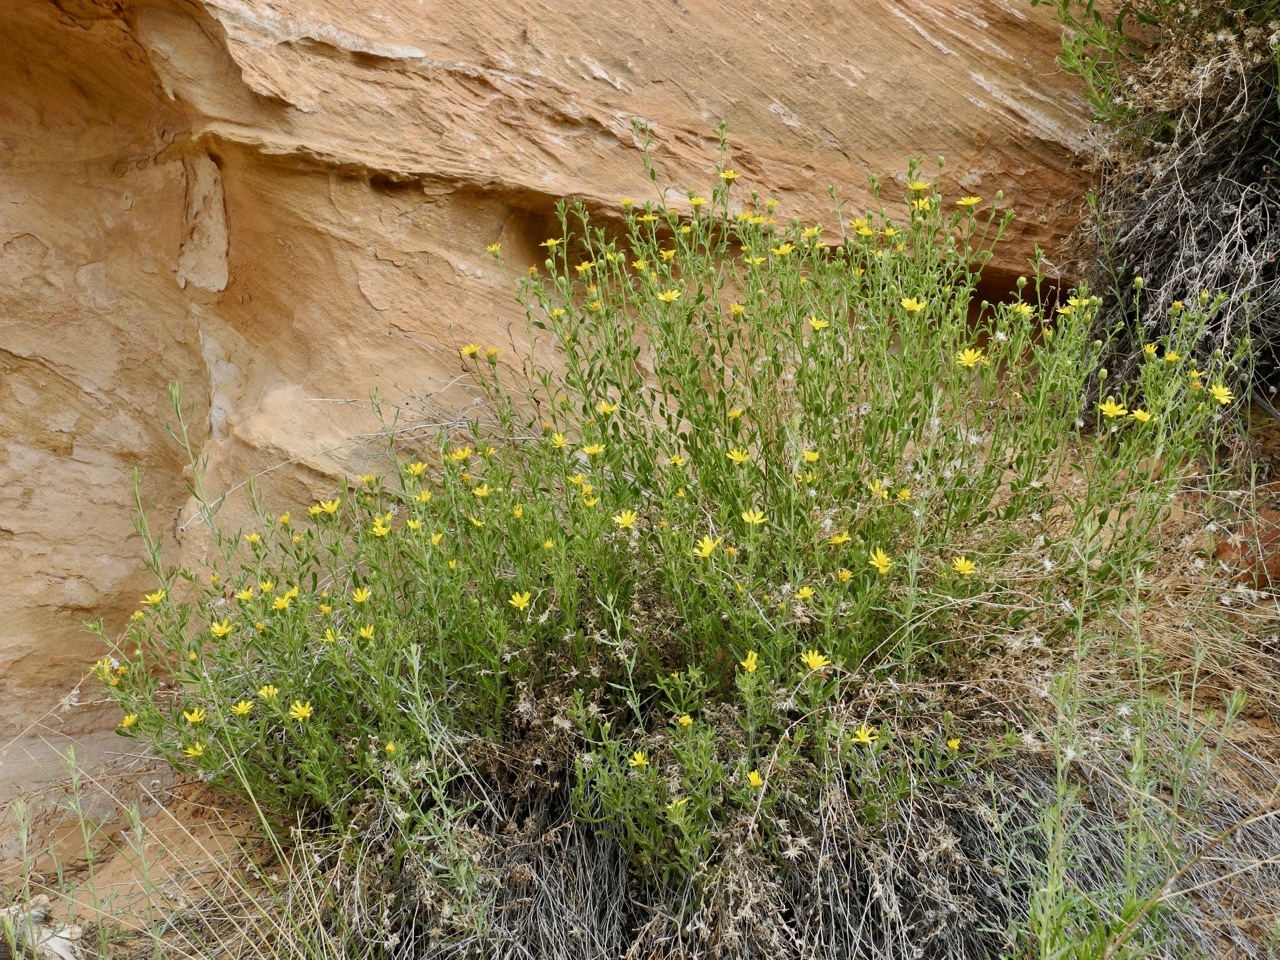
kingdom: Plantae
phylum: Tracheophyta
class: Magnoliopsida
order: Asterales
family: Asteraceae
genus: Scabrethia
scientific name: Scabrethia scabra
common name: Rough mules's-ears
